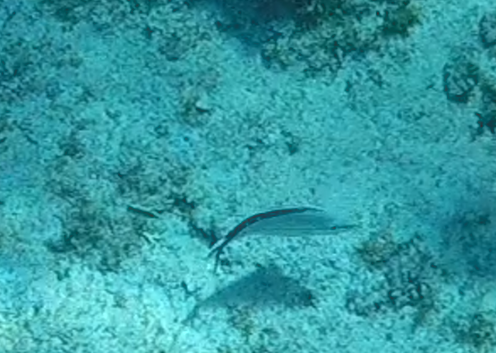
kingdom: Animalia
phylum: Chordata
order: Perciformes
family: Haemulidae
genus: Haemulon
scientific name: Haemulon melanurum
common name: Cottonwick
